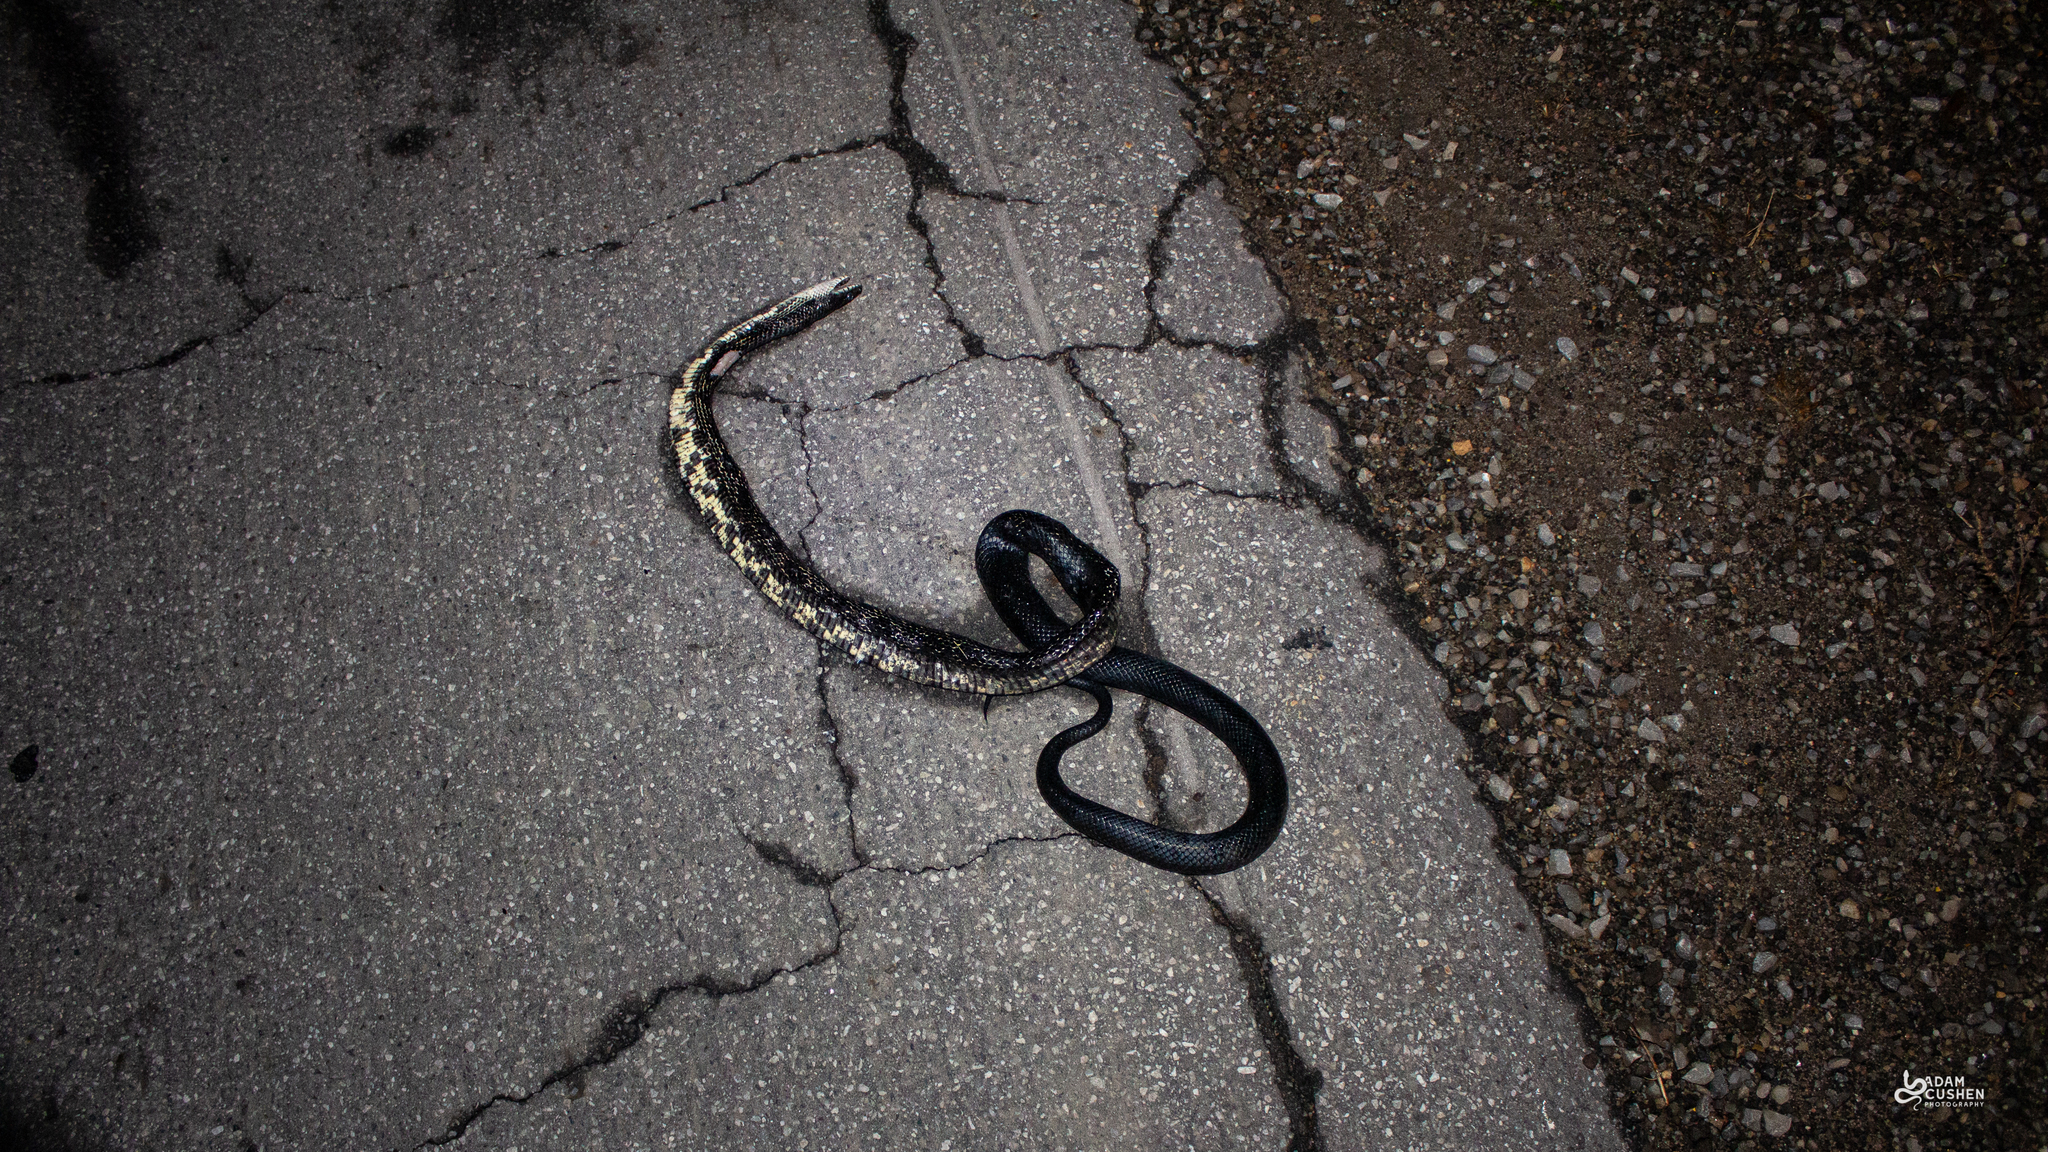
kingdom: Animalia
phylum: Chordata
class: Squamata
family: Colubridae
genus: Pantherophis
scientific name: Pantherophis spiloides
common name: Gray rat snake
